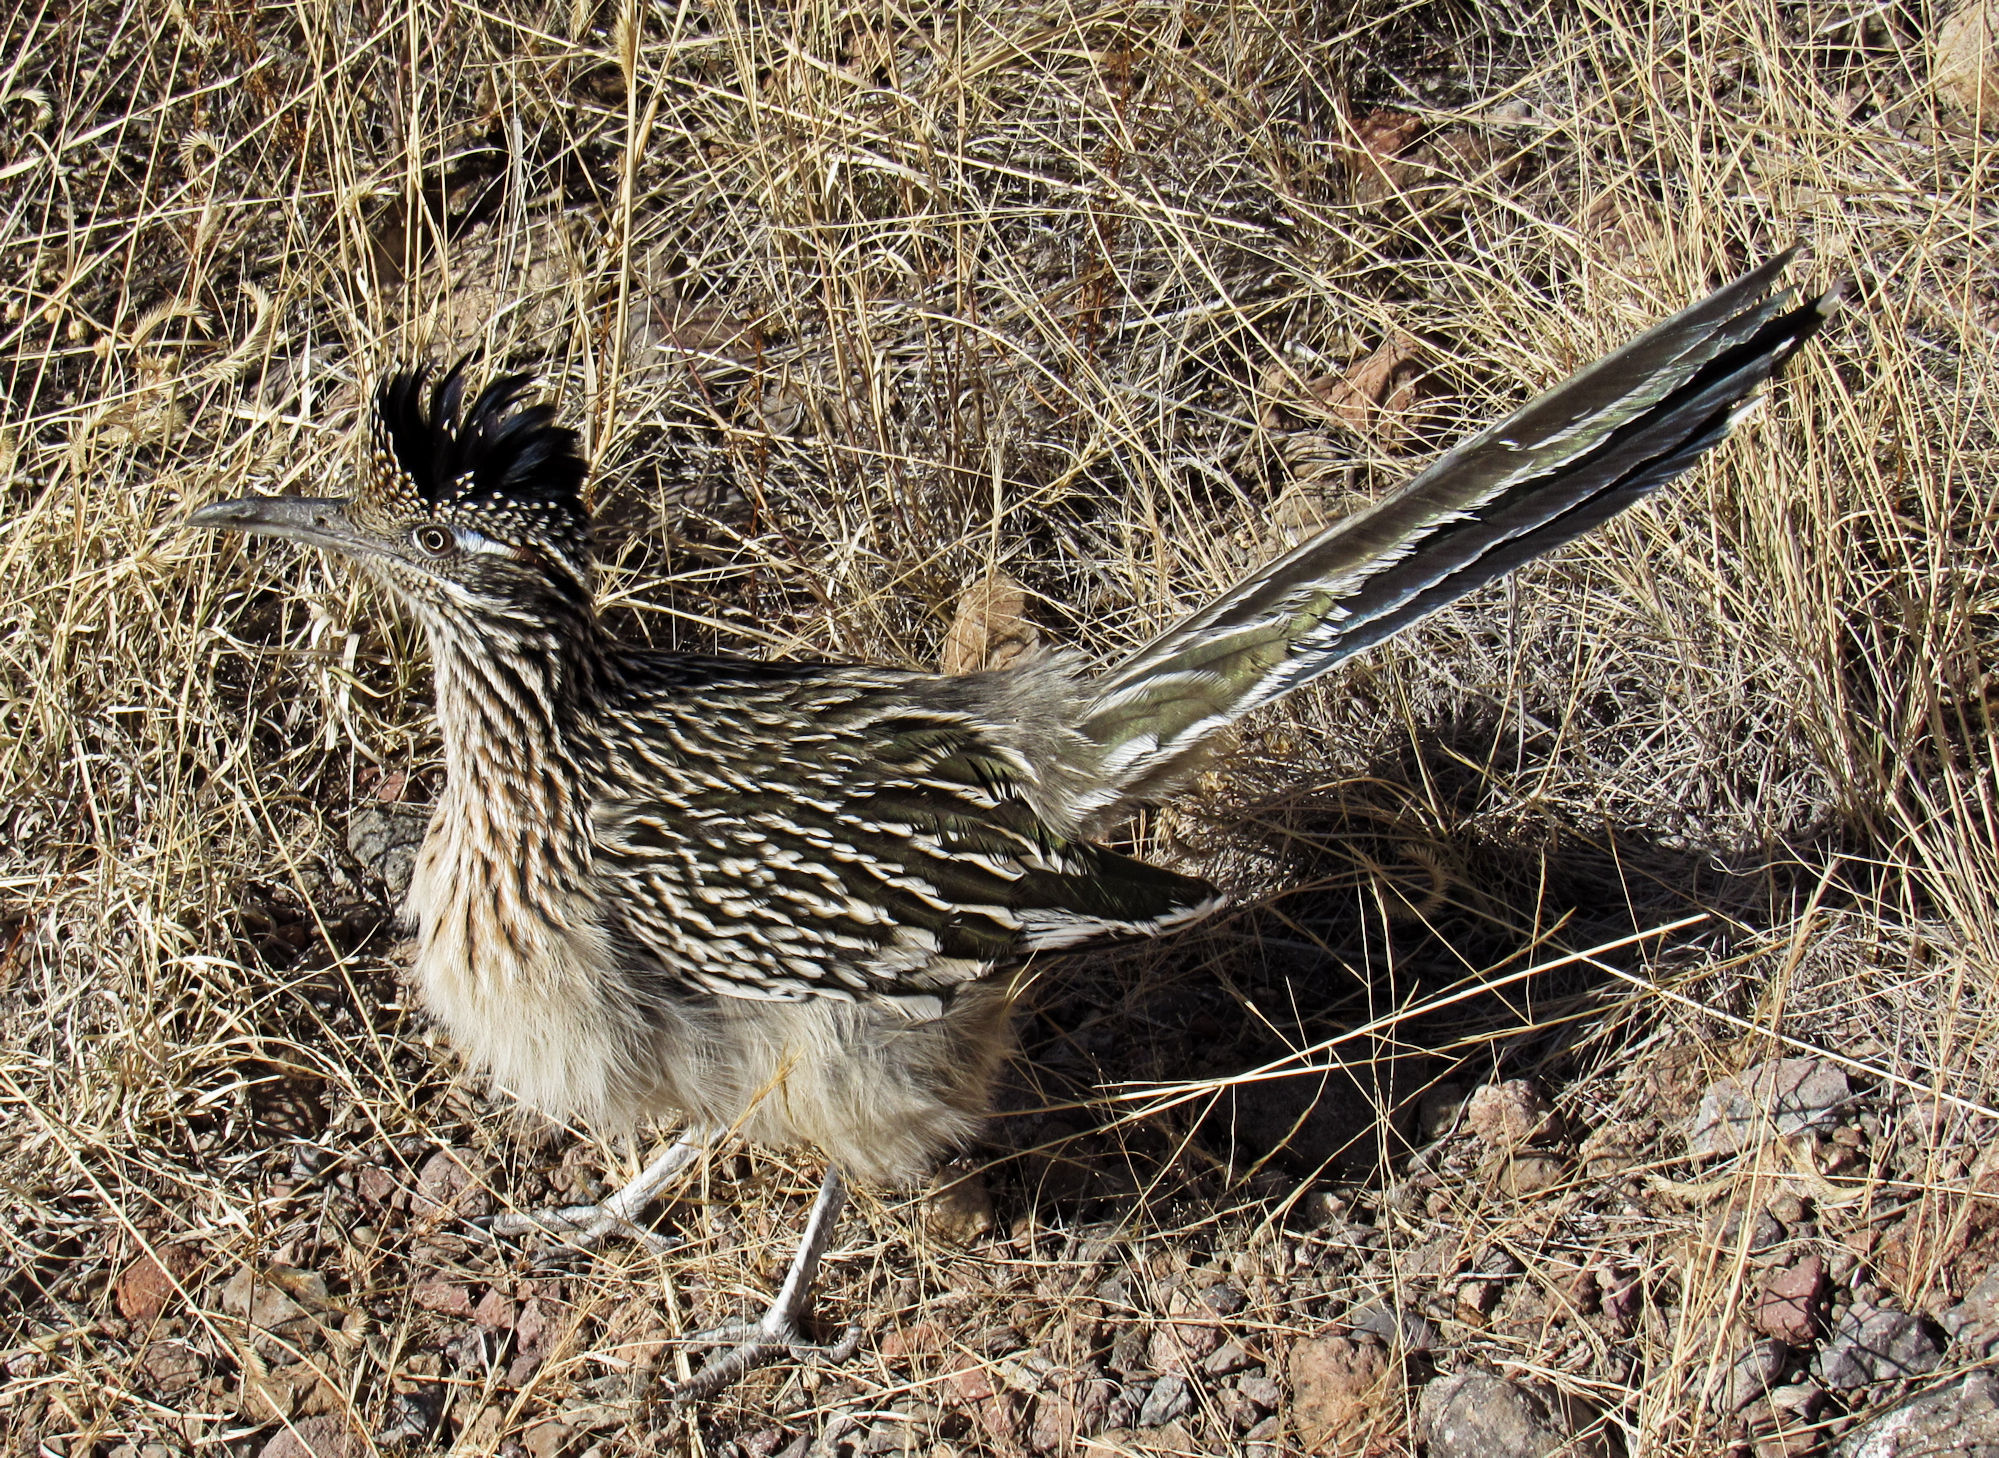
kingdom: Animalia
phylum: Chordata
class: Aves
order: Cuculiformes
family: Cuculidae
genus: Geococcyx
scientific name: Geococcyx californianus
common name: Greater roadrunner
